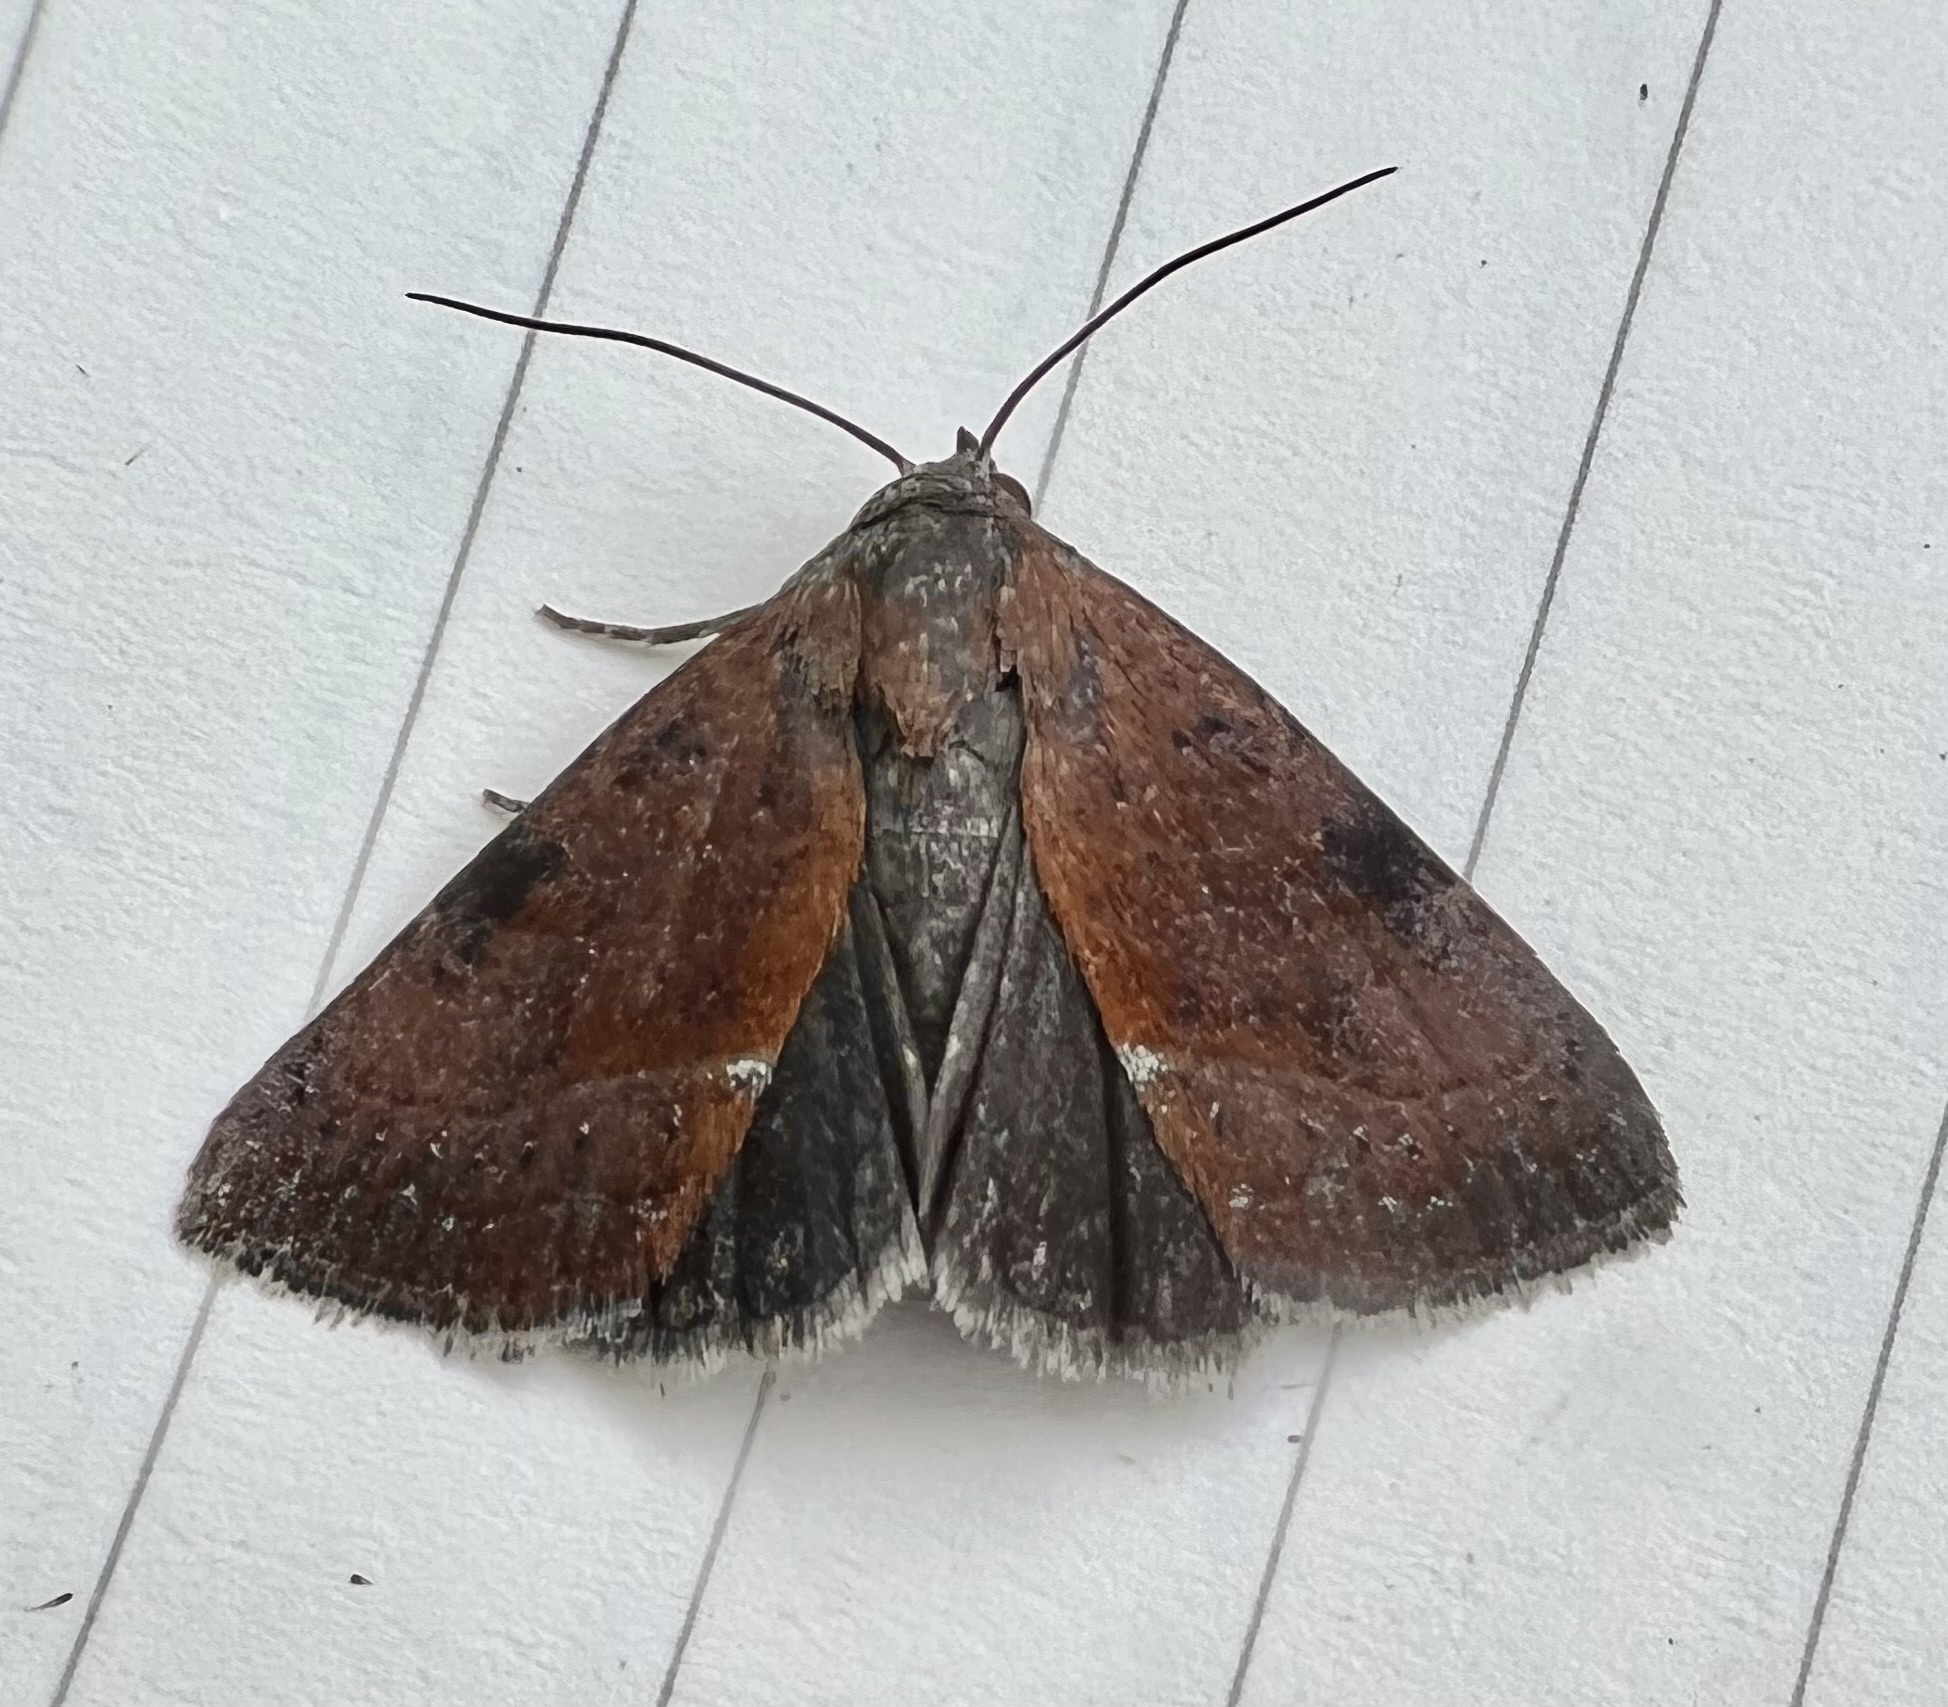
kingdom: Animalia
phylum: Arthropoda
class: Insecta
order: Lepidoptera
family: Noctuidae
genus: Galgula
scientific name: Galgula partita
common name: Wedgeling
